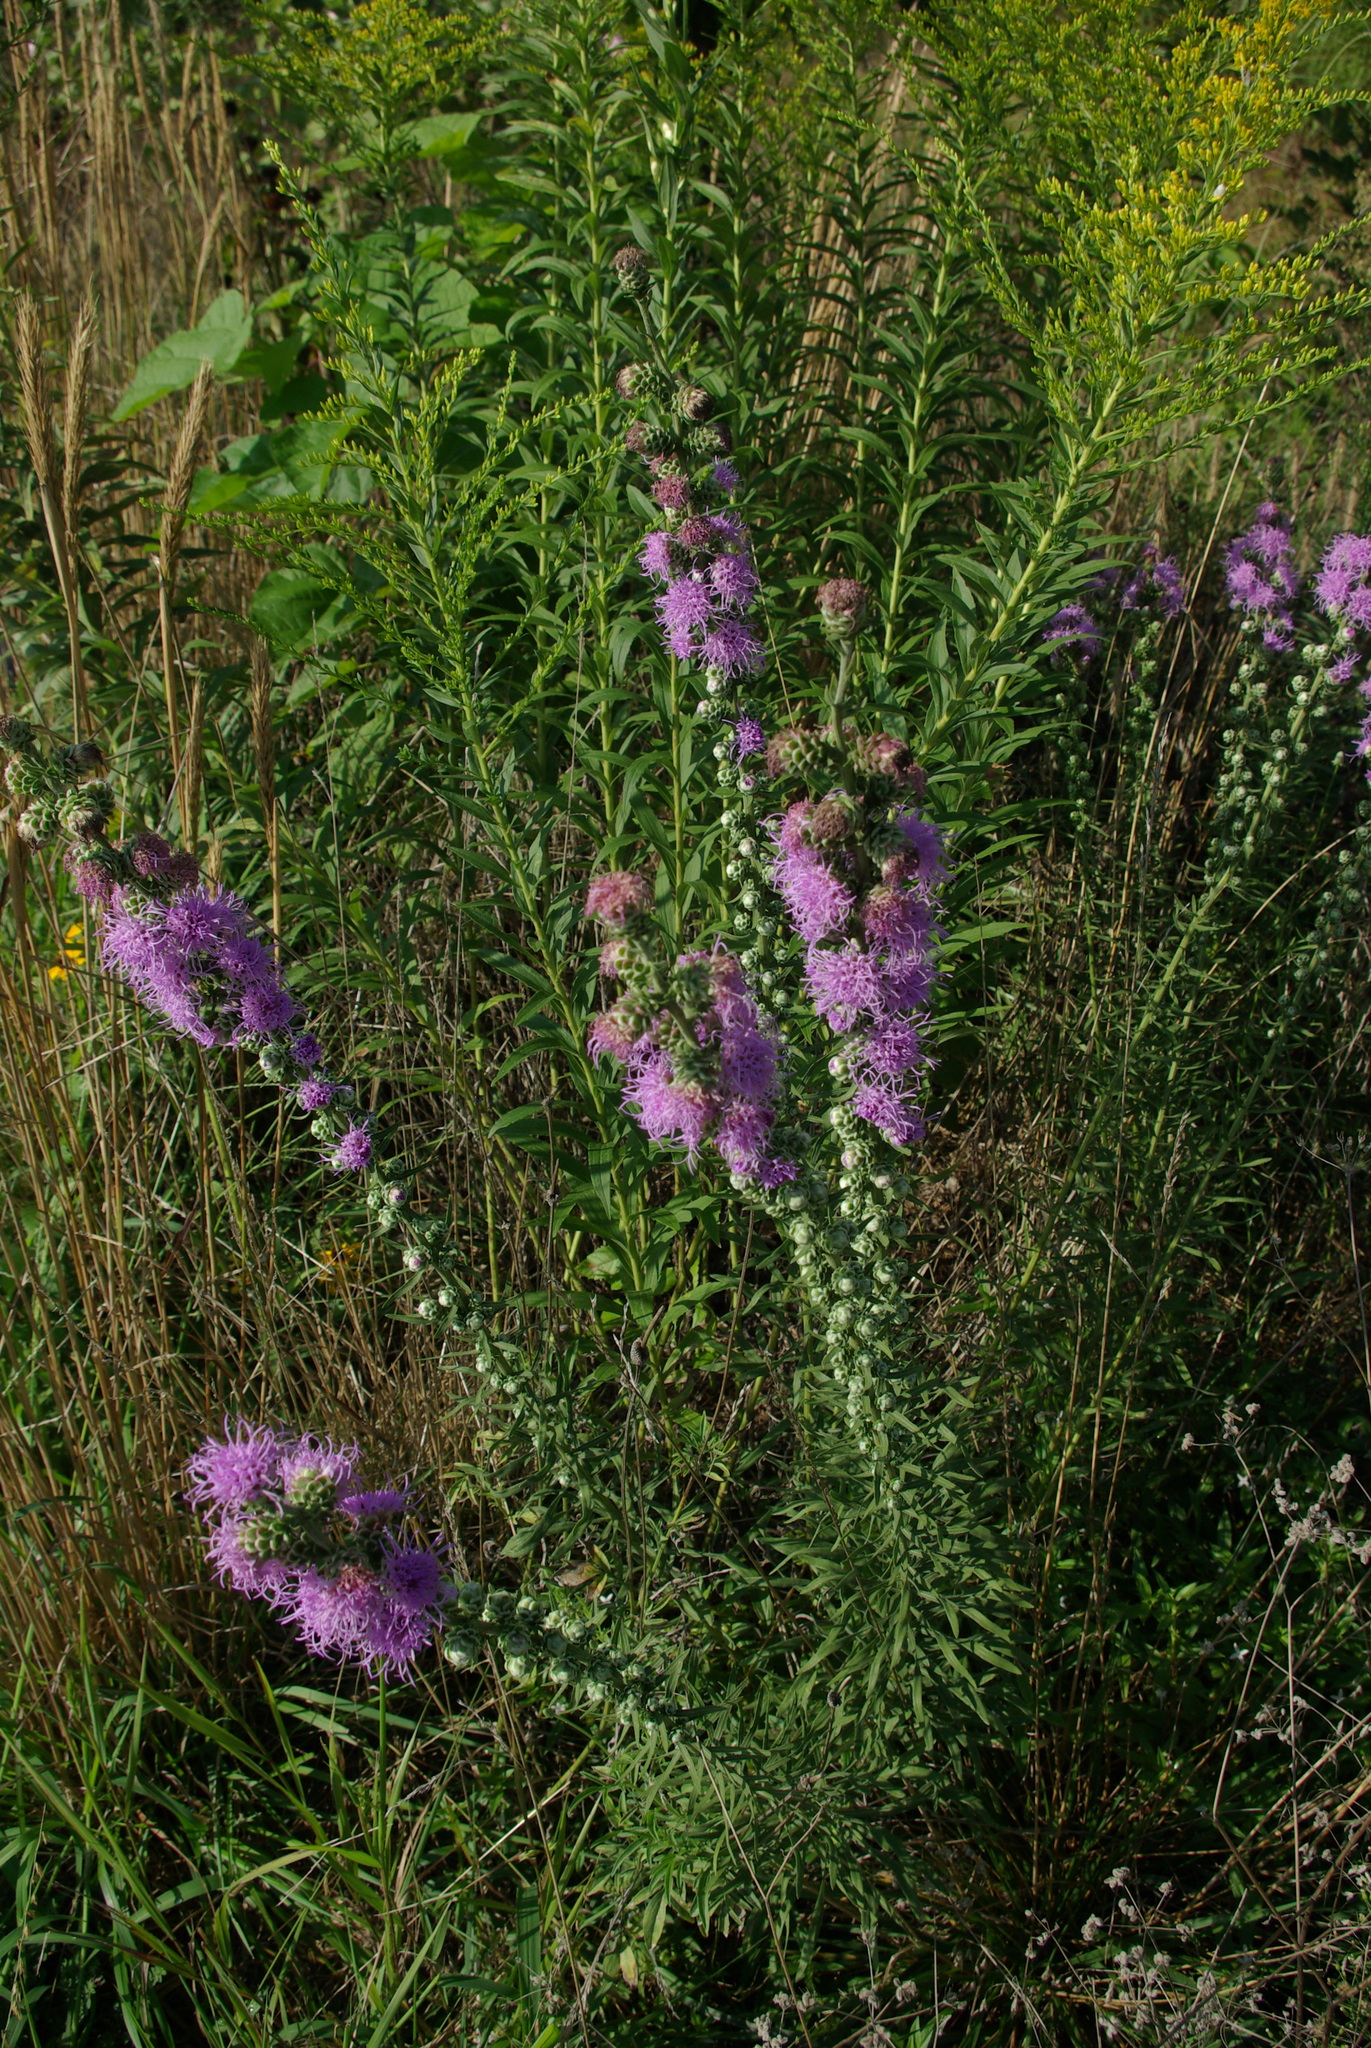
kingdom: Plantae
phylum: Tracheophyta
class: Magnoliopsida
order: Asterales
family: Asteraceae
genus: Liatris
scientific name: Liatris aspera
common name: Lacerate blazing-star
